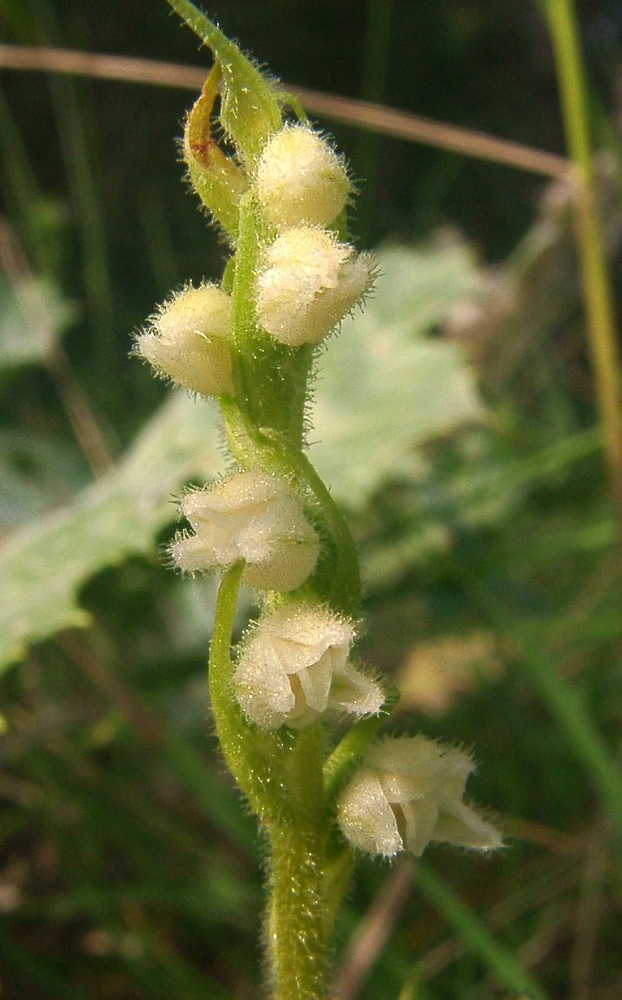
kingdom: Plantae
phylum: Tracheophyta
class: Liliopsida
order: Asparagales
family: Orchidaceae
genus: Goodyera
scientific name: Goodyera repens
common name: Creeping lady's-tresses
